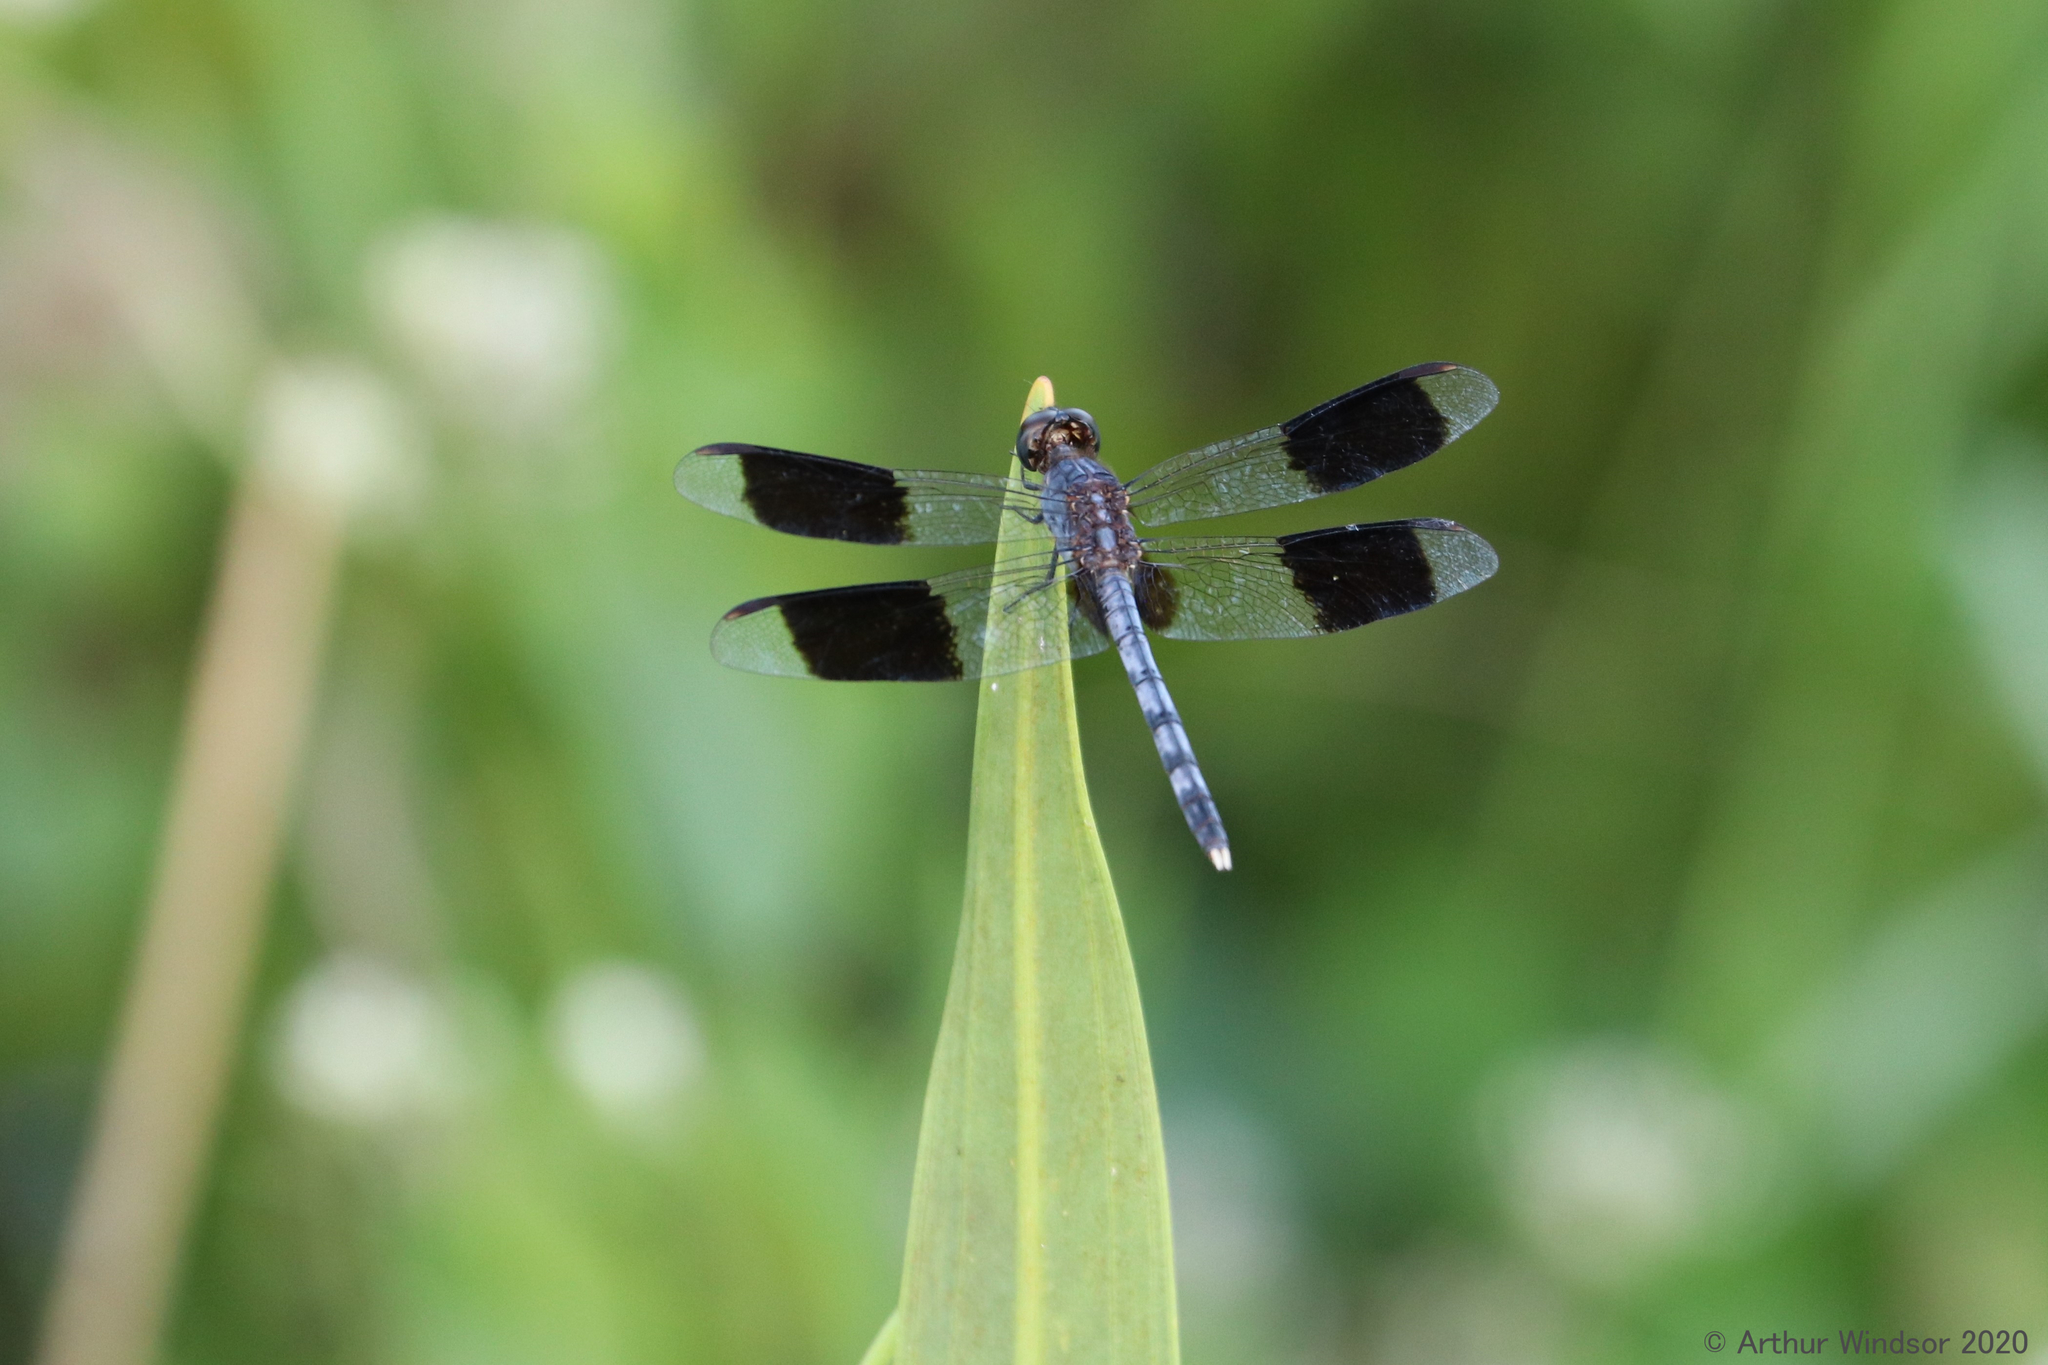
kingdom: Animalia
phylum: Arthropoda
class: Insecta
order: Odonata
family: Libellulidae
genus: Erythrodiplax
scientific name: Erythrodiplax umbrata
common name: Band-winged dragonlet
